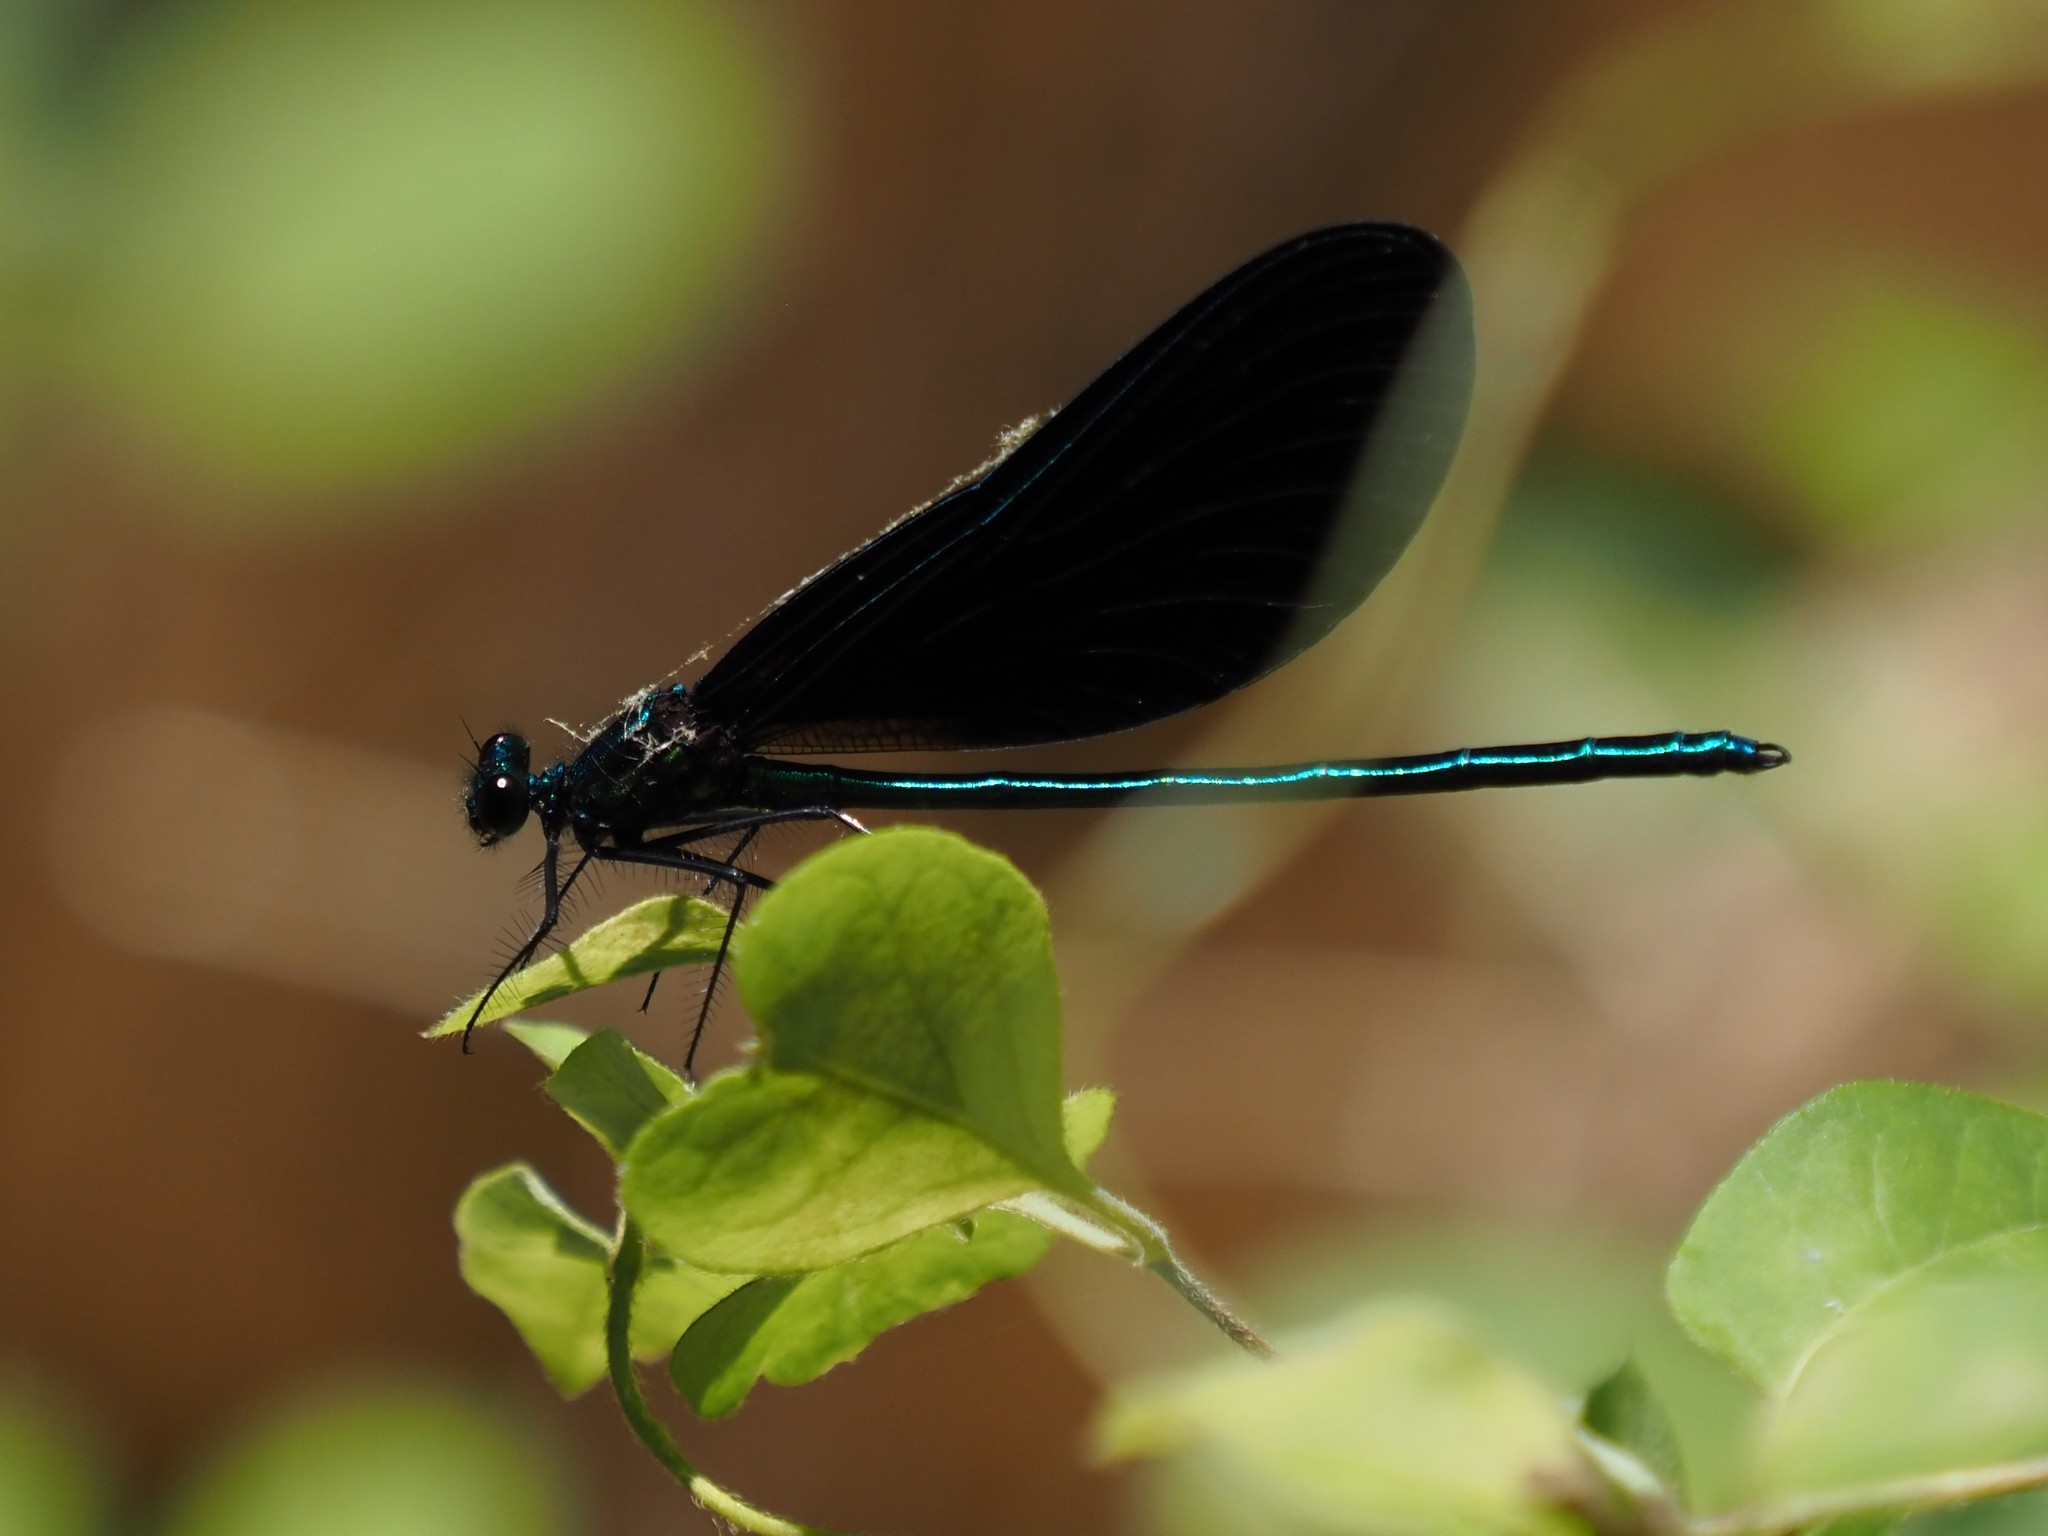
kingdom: Animalia
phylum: Arthropoda
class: Insecta
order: Odonata
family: Calopterygidae
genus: Calopteryx
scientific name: Calopteryx maculata
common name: Ebony jewelwing
